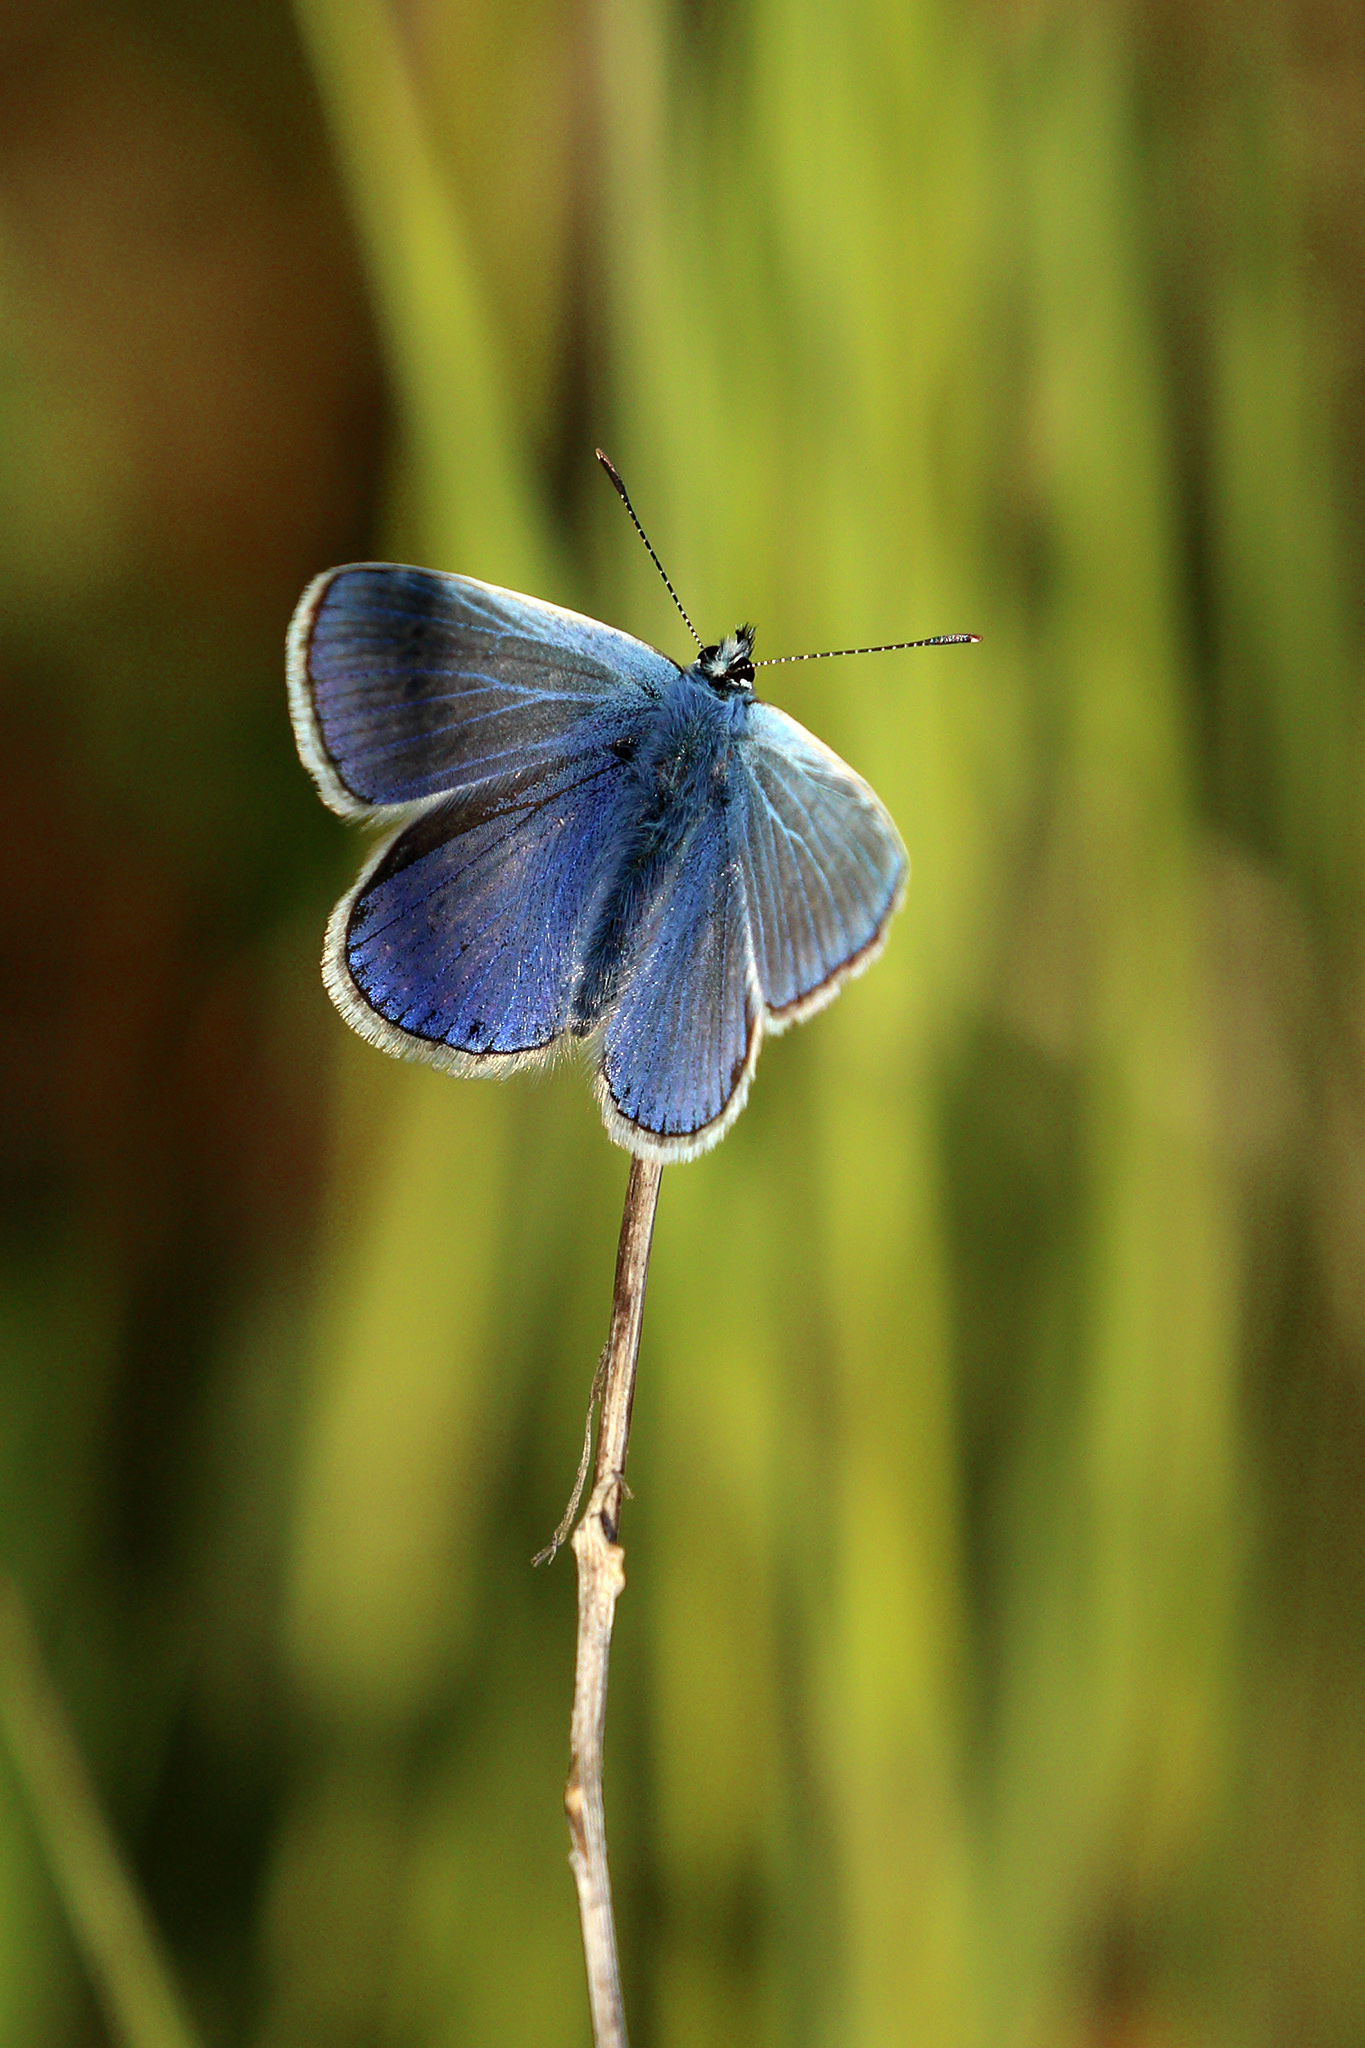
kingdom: Animalia
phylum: Arthropoda
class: Insecta
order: Lepidoptera
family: Lycaenidae
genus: Polyommatus
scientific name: Polyommatus icarus
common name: Common blue
